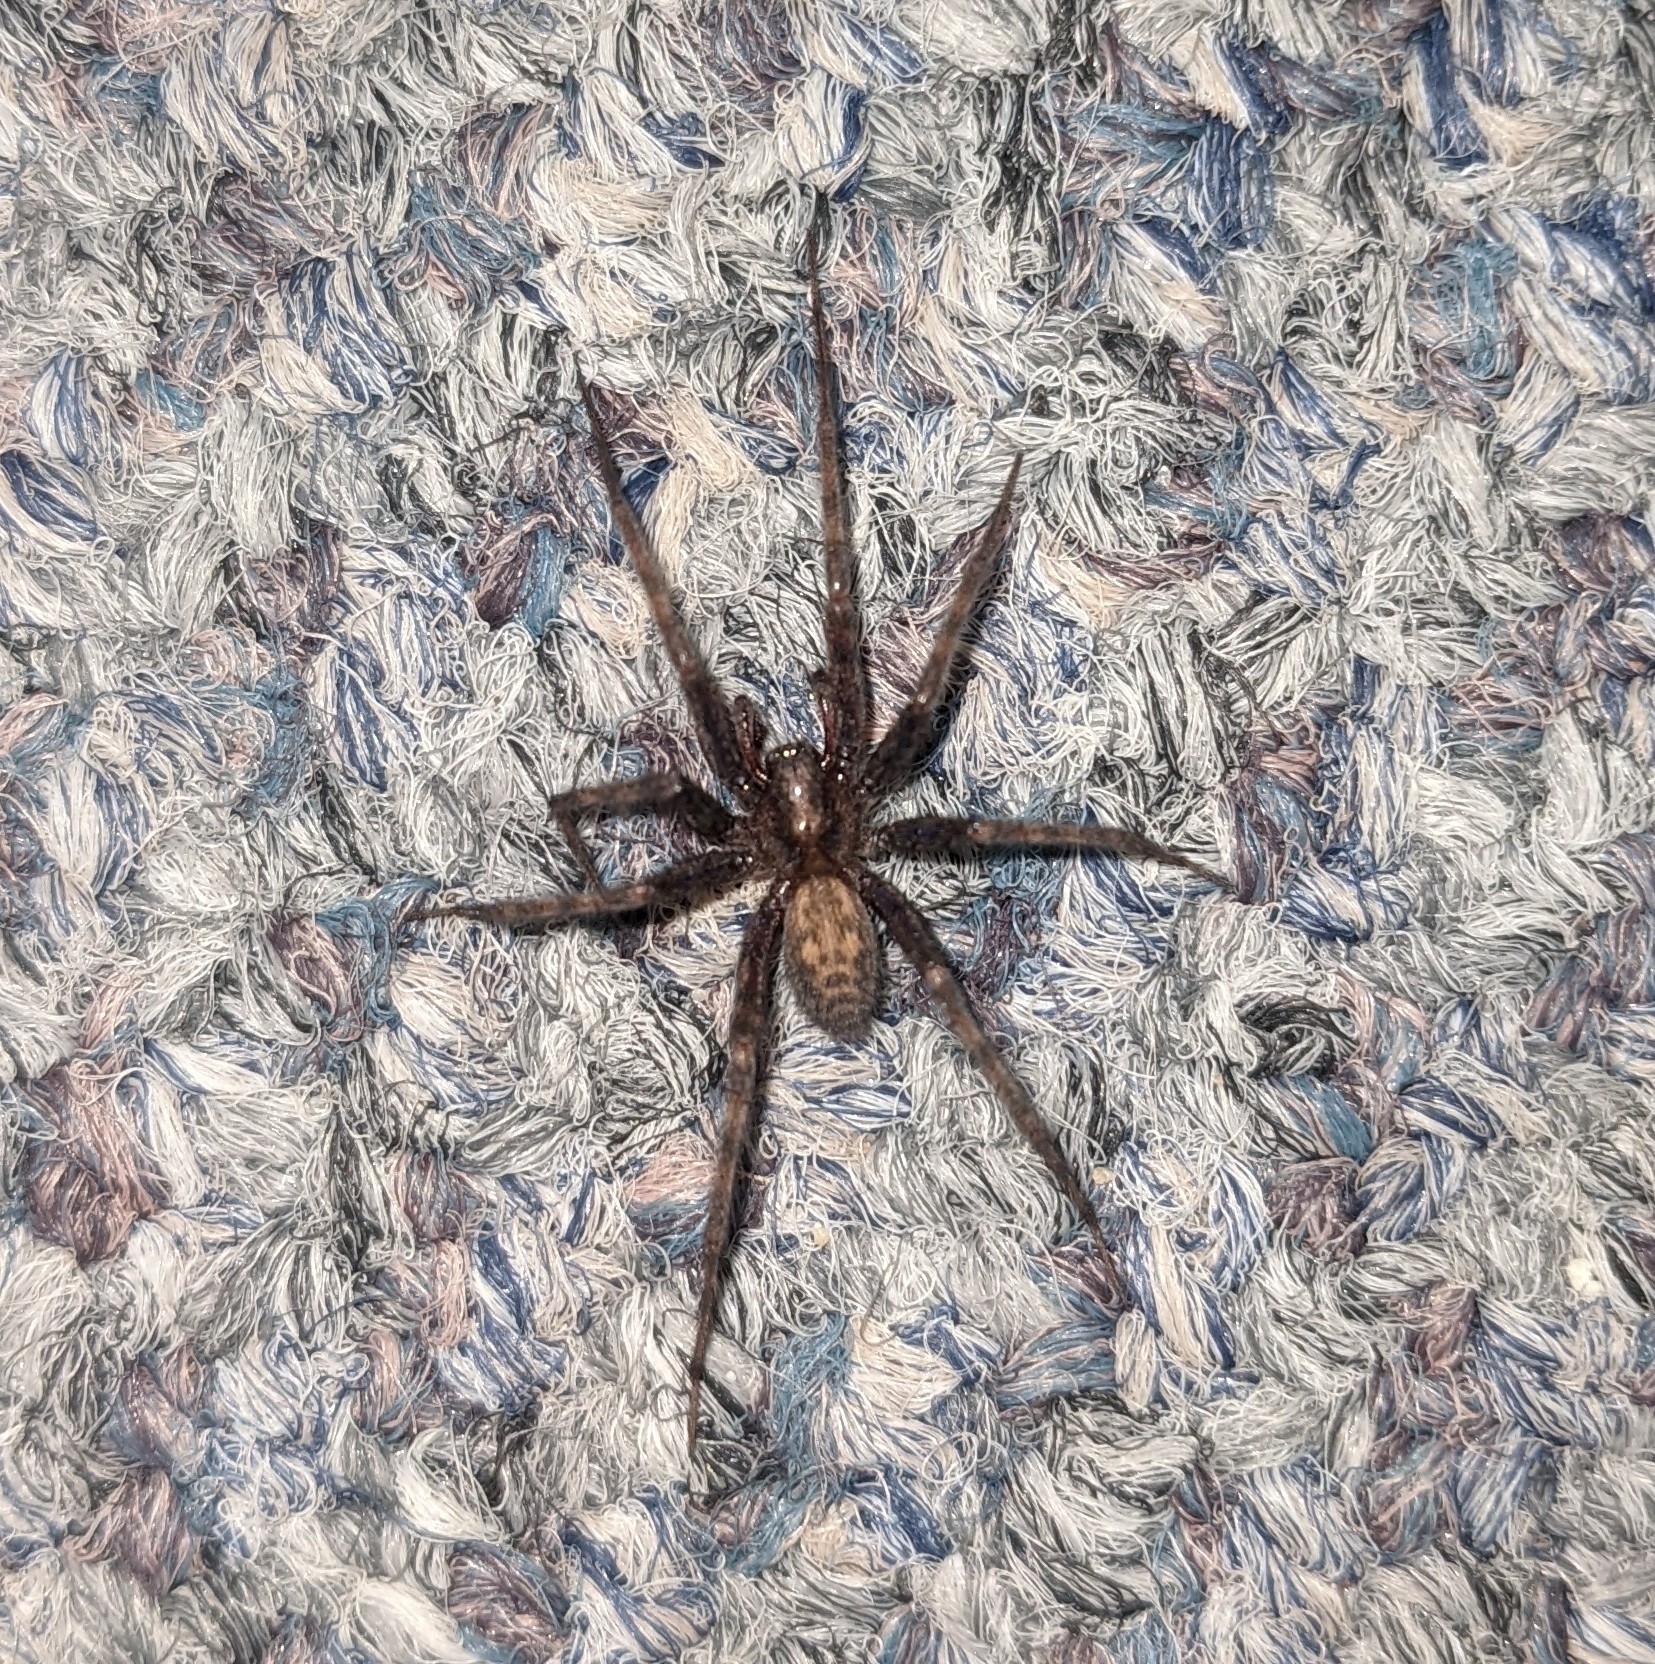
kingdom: Animalia
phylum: Arthropoda
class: Arachnida
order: Araneae
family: Agelenidae
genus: Tegenaria
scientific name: Tegenaria domestica
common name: Barn funnel weaver
